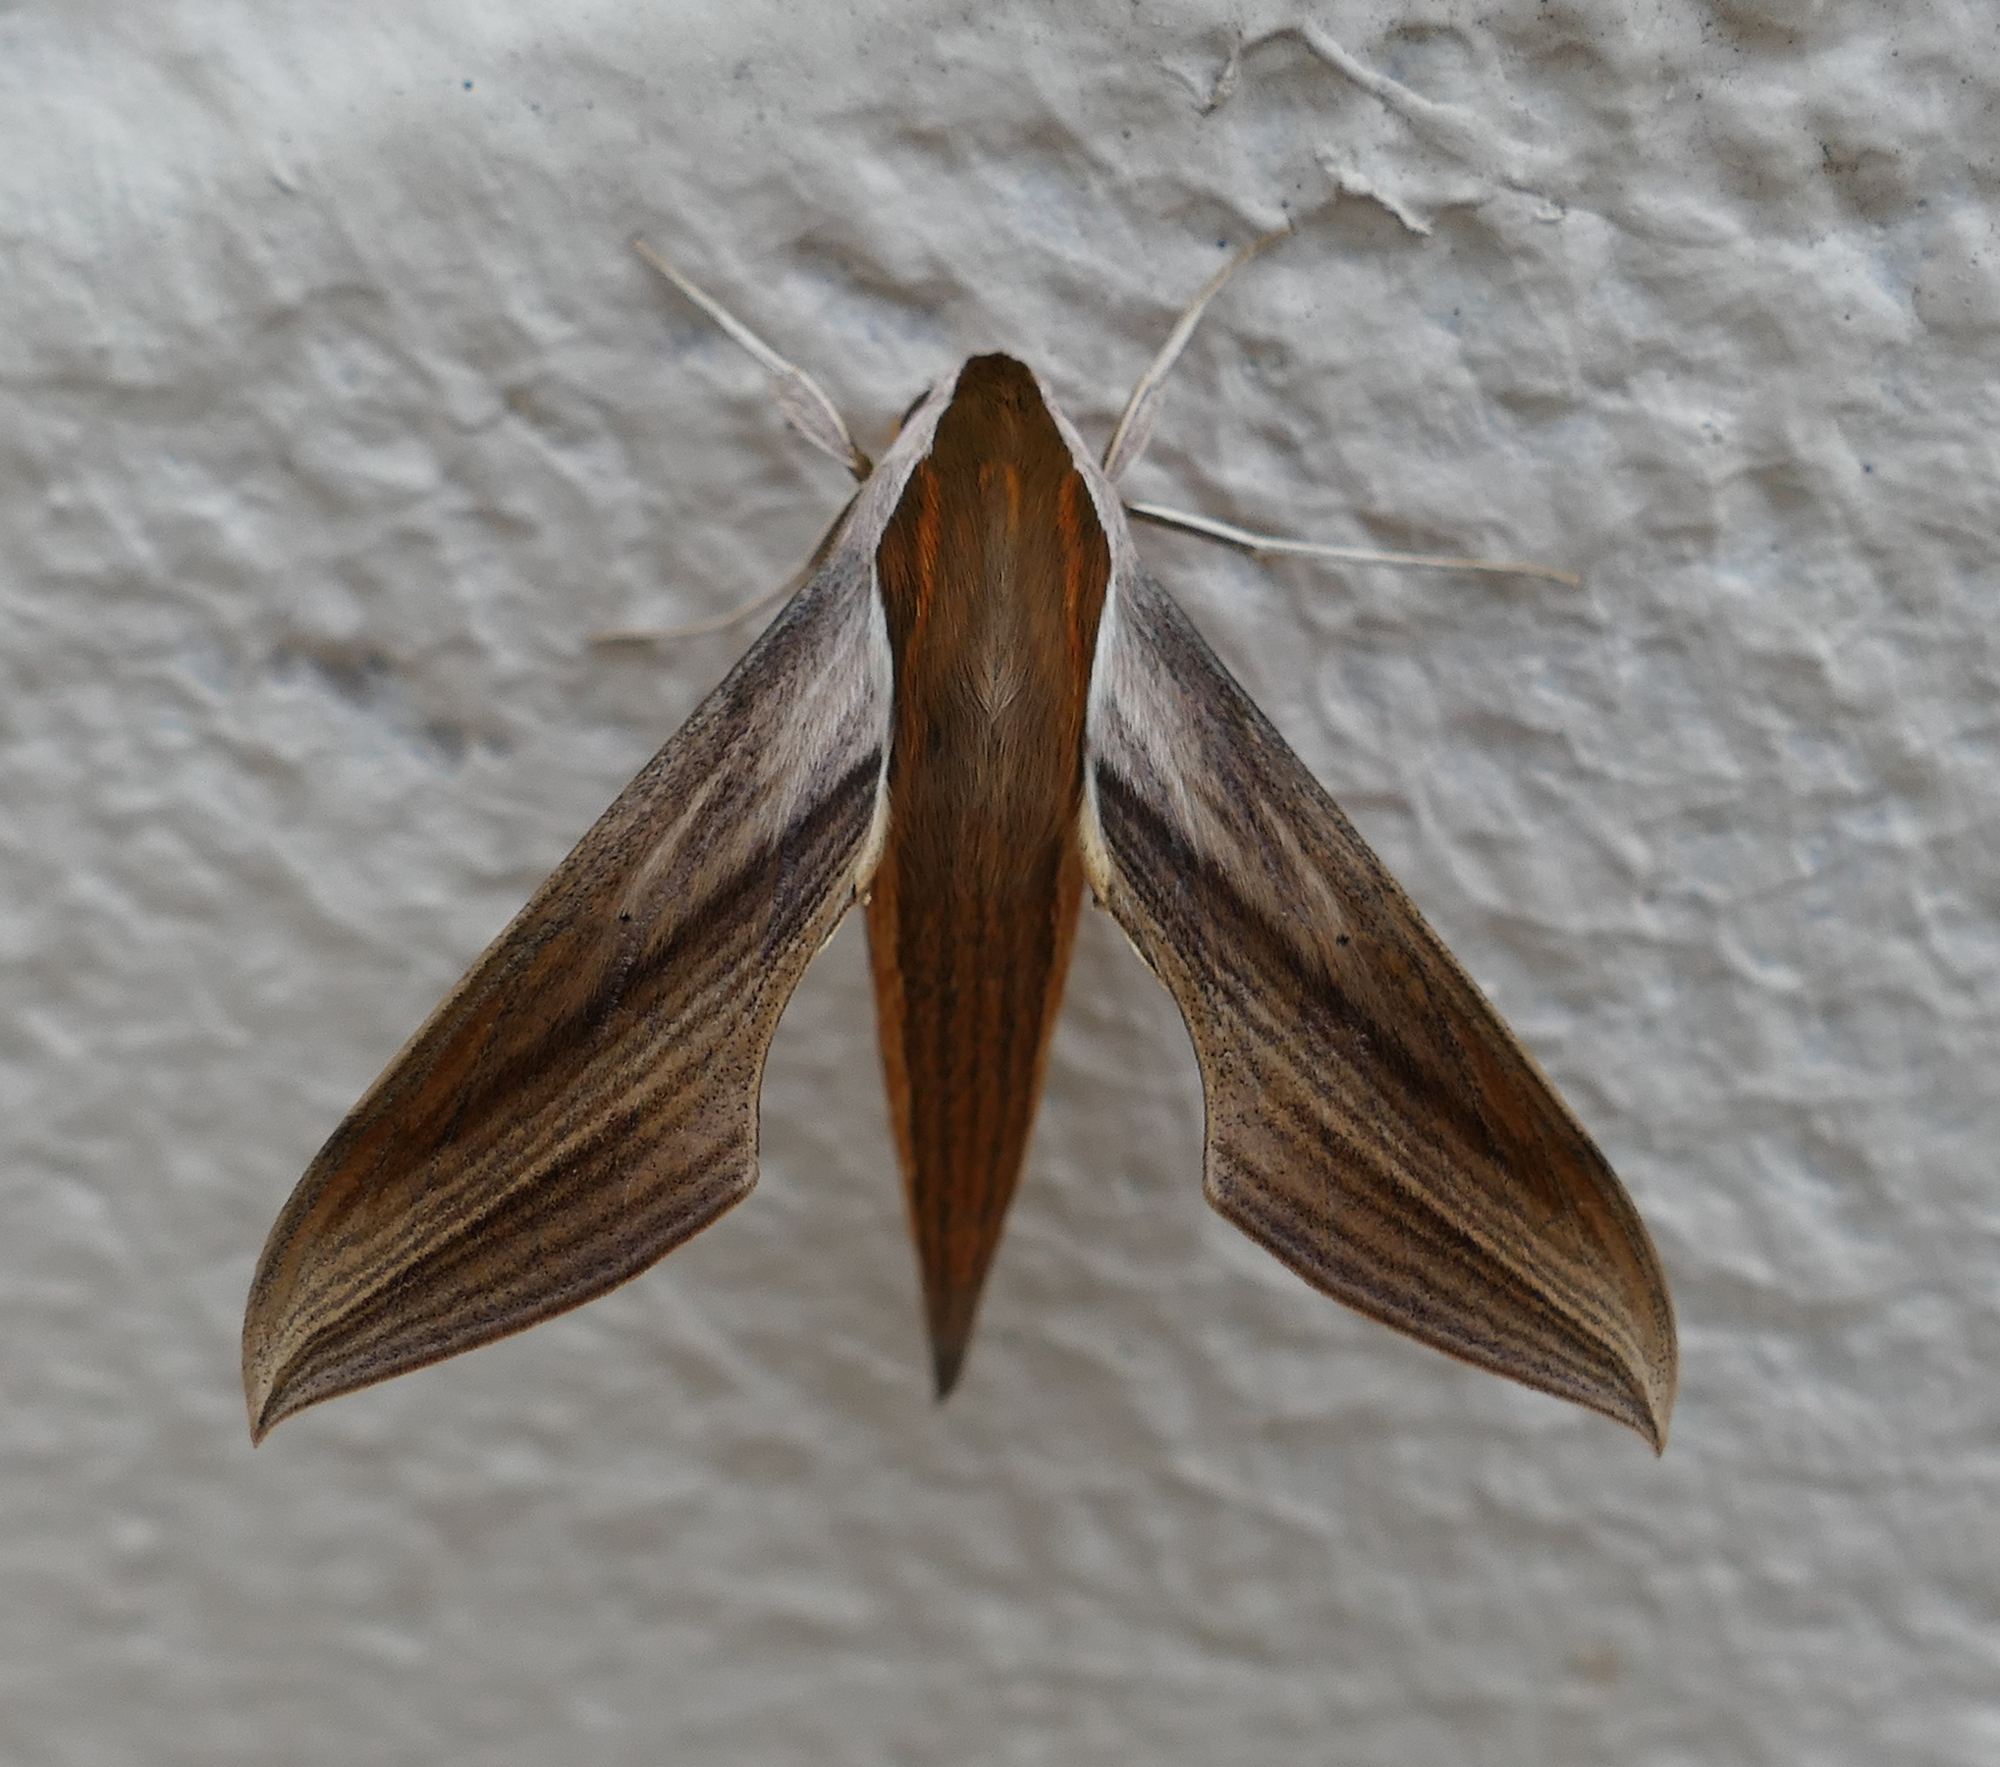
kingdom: Animalia
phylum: Arthropoda
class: Insecta
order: Lepidoptera
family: Sphingidae
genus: Xylophanes
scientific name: Xylophanes tersa
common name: Tersa sphinx
